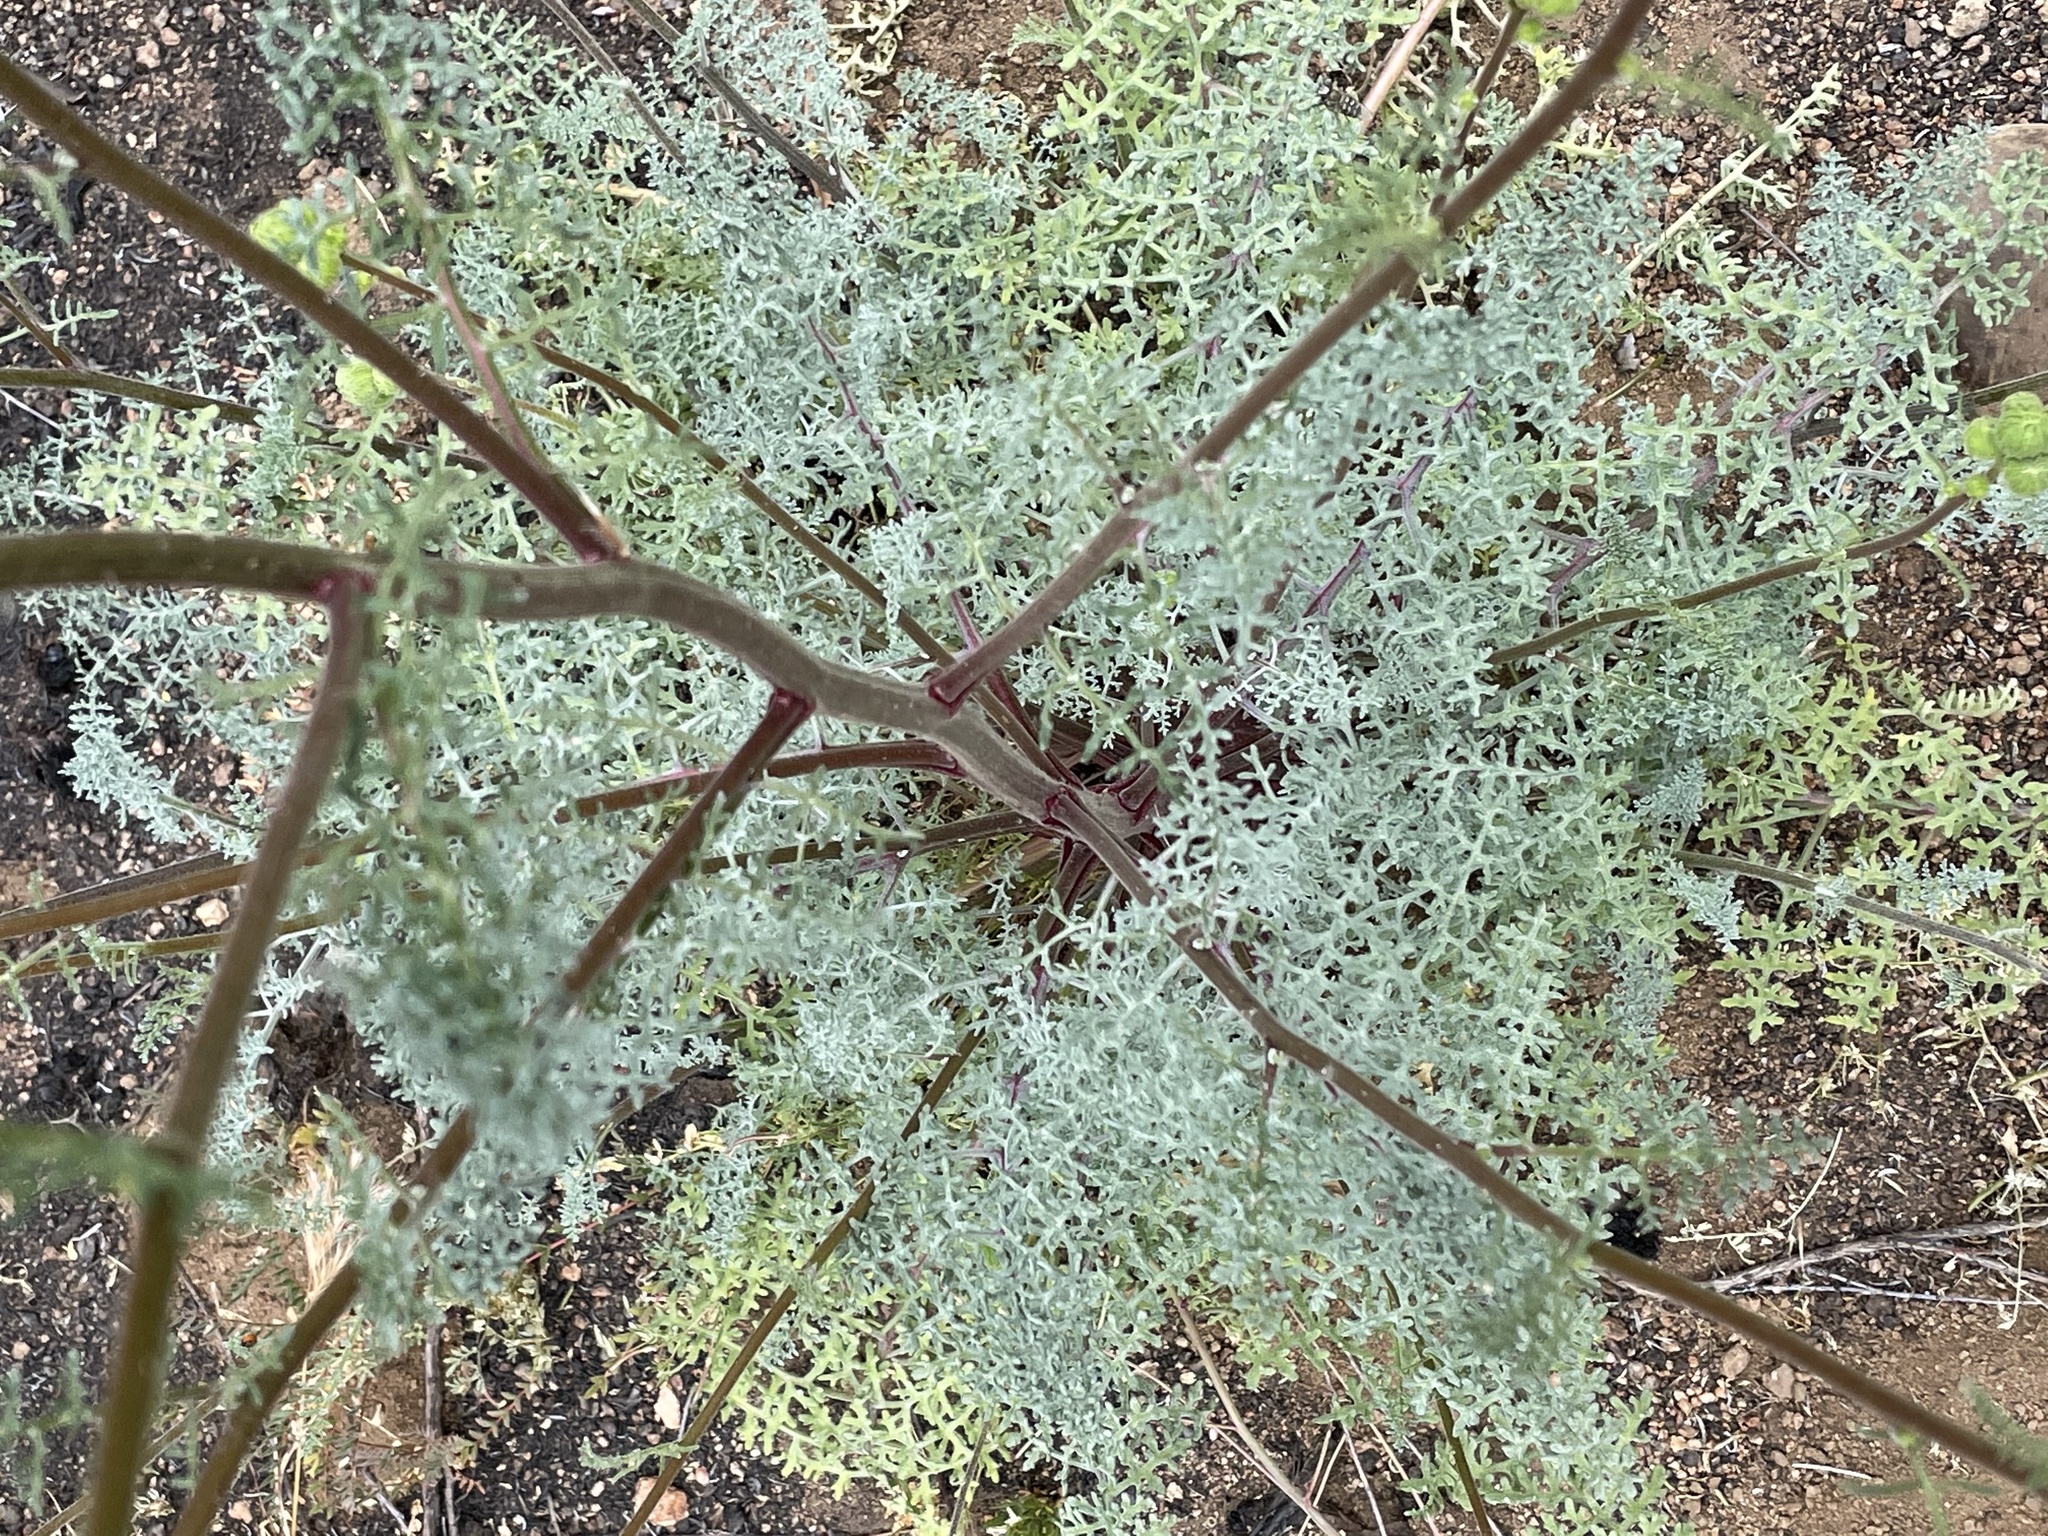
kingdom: Plantae
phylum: Tracheophyta
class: Magnoliopsida
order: Asterales
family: Asteraceae
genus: Chaenactis
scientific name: Chaenactis artemisiifolia
